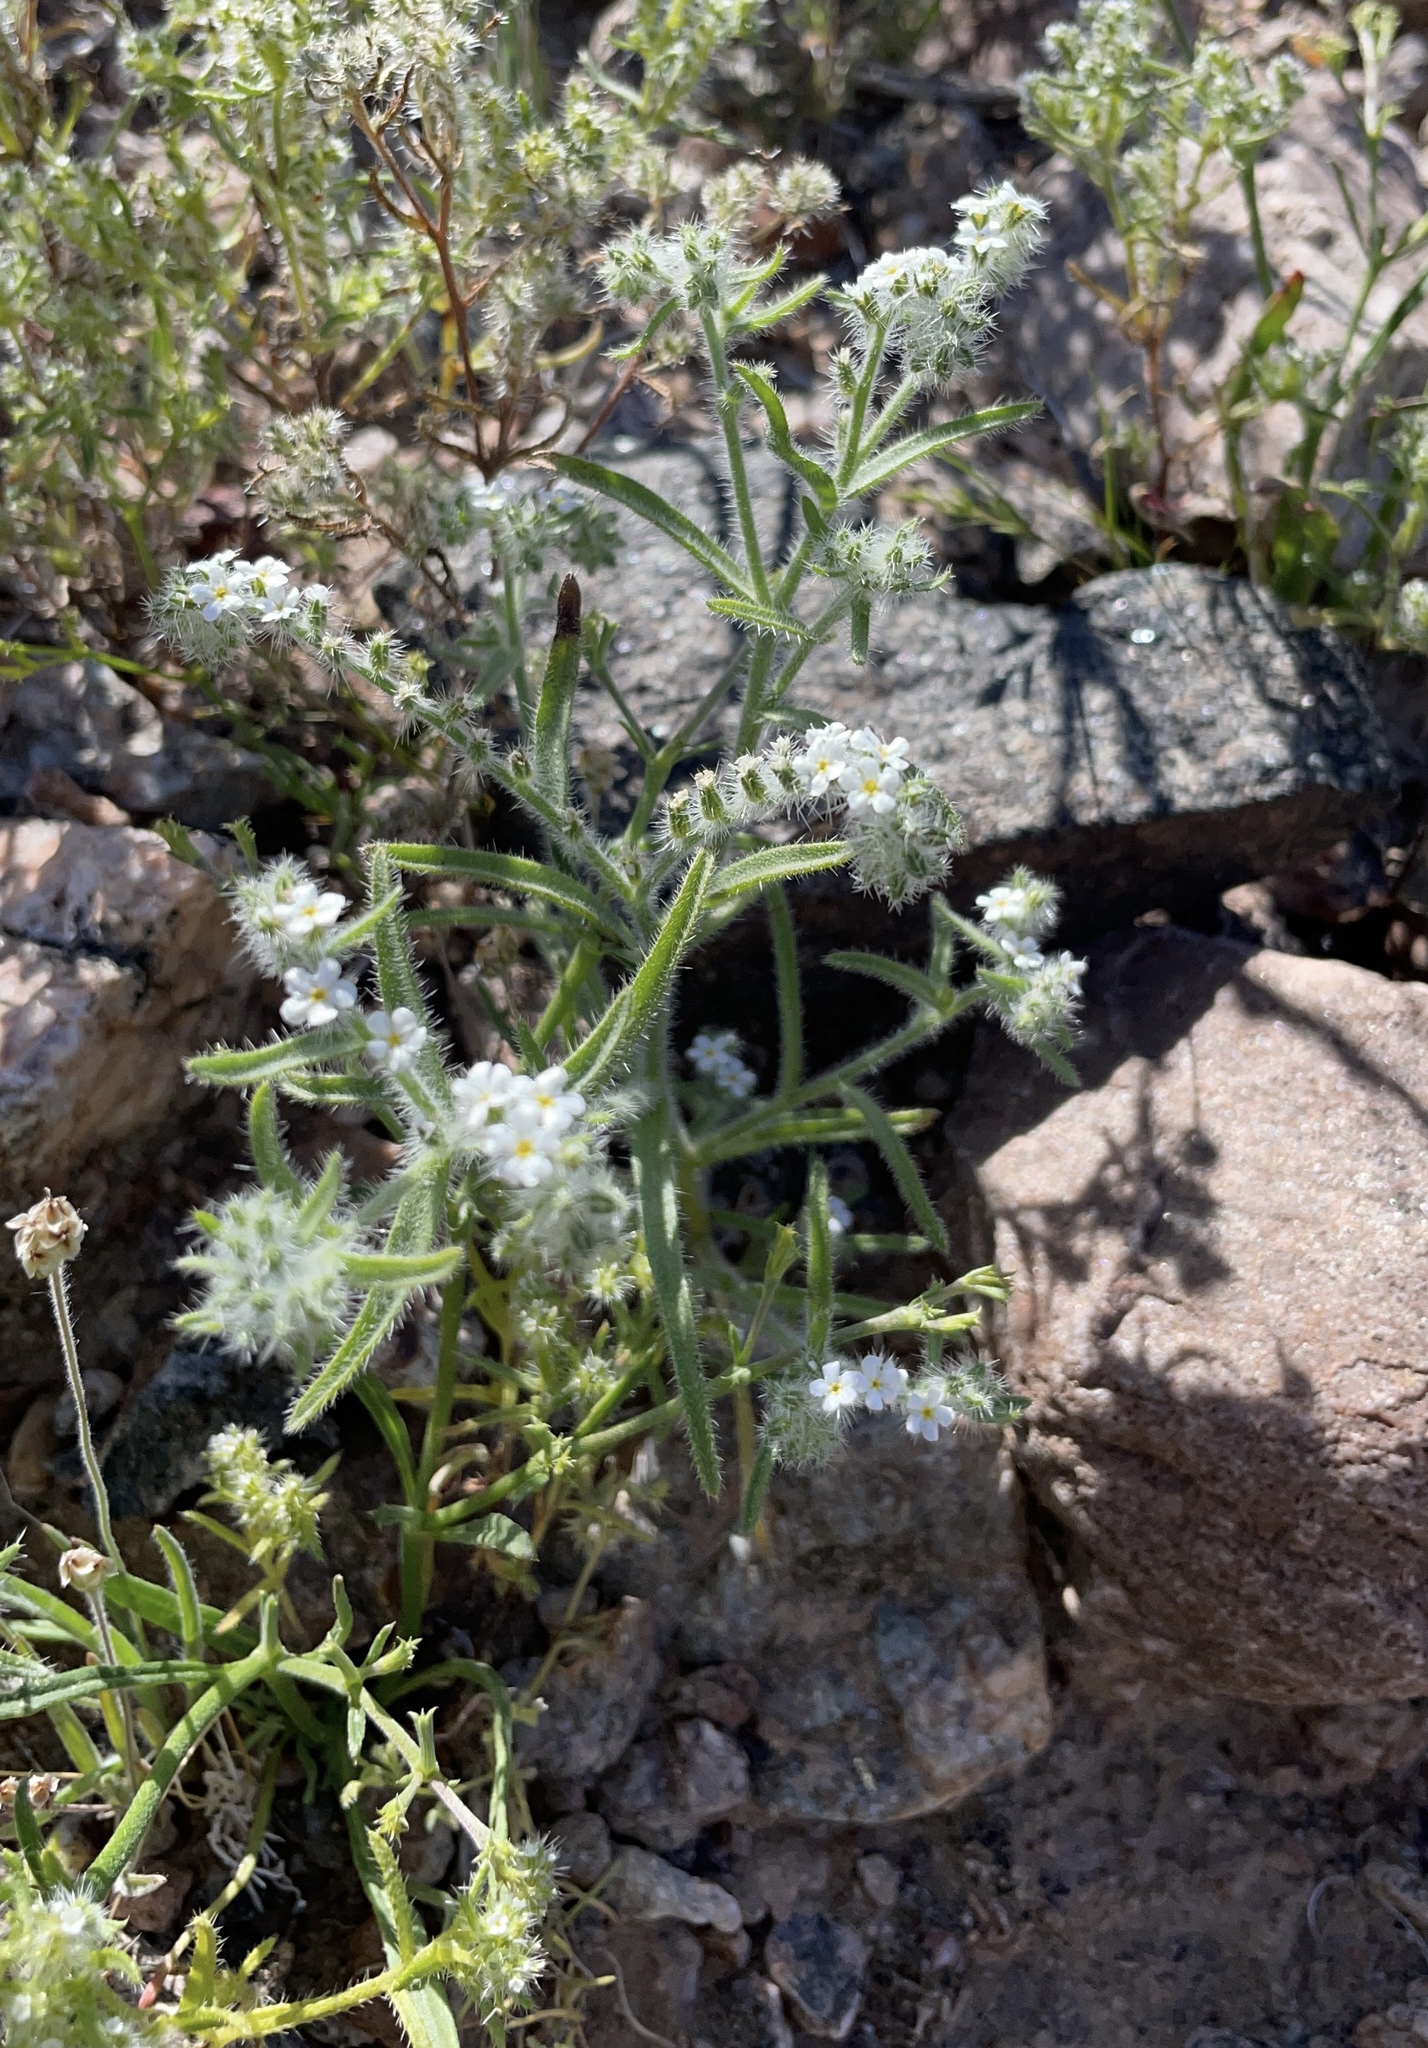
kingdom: Plantae
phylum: Tracheophyta
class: Magnoliopsida
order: Boraginales
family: Boraginaceae
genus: Johnstonella
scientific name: Johnstonella angustifolia
